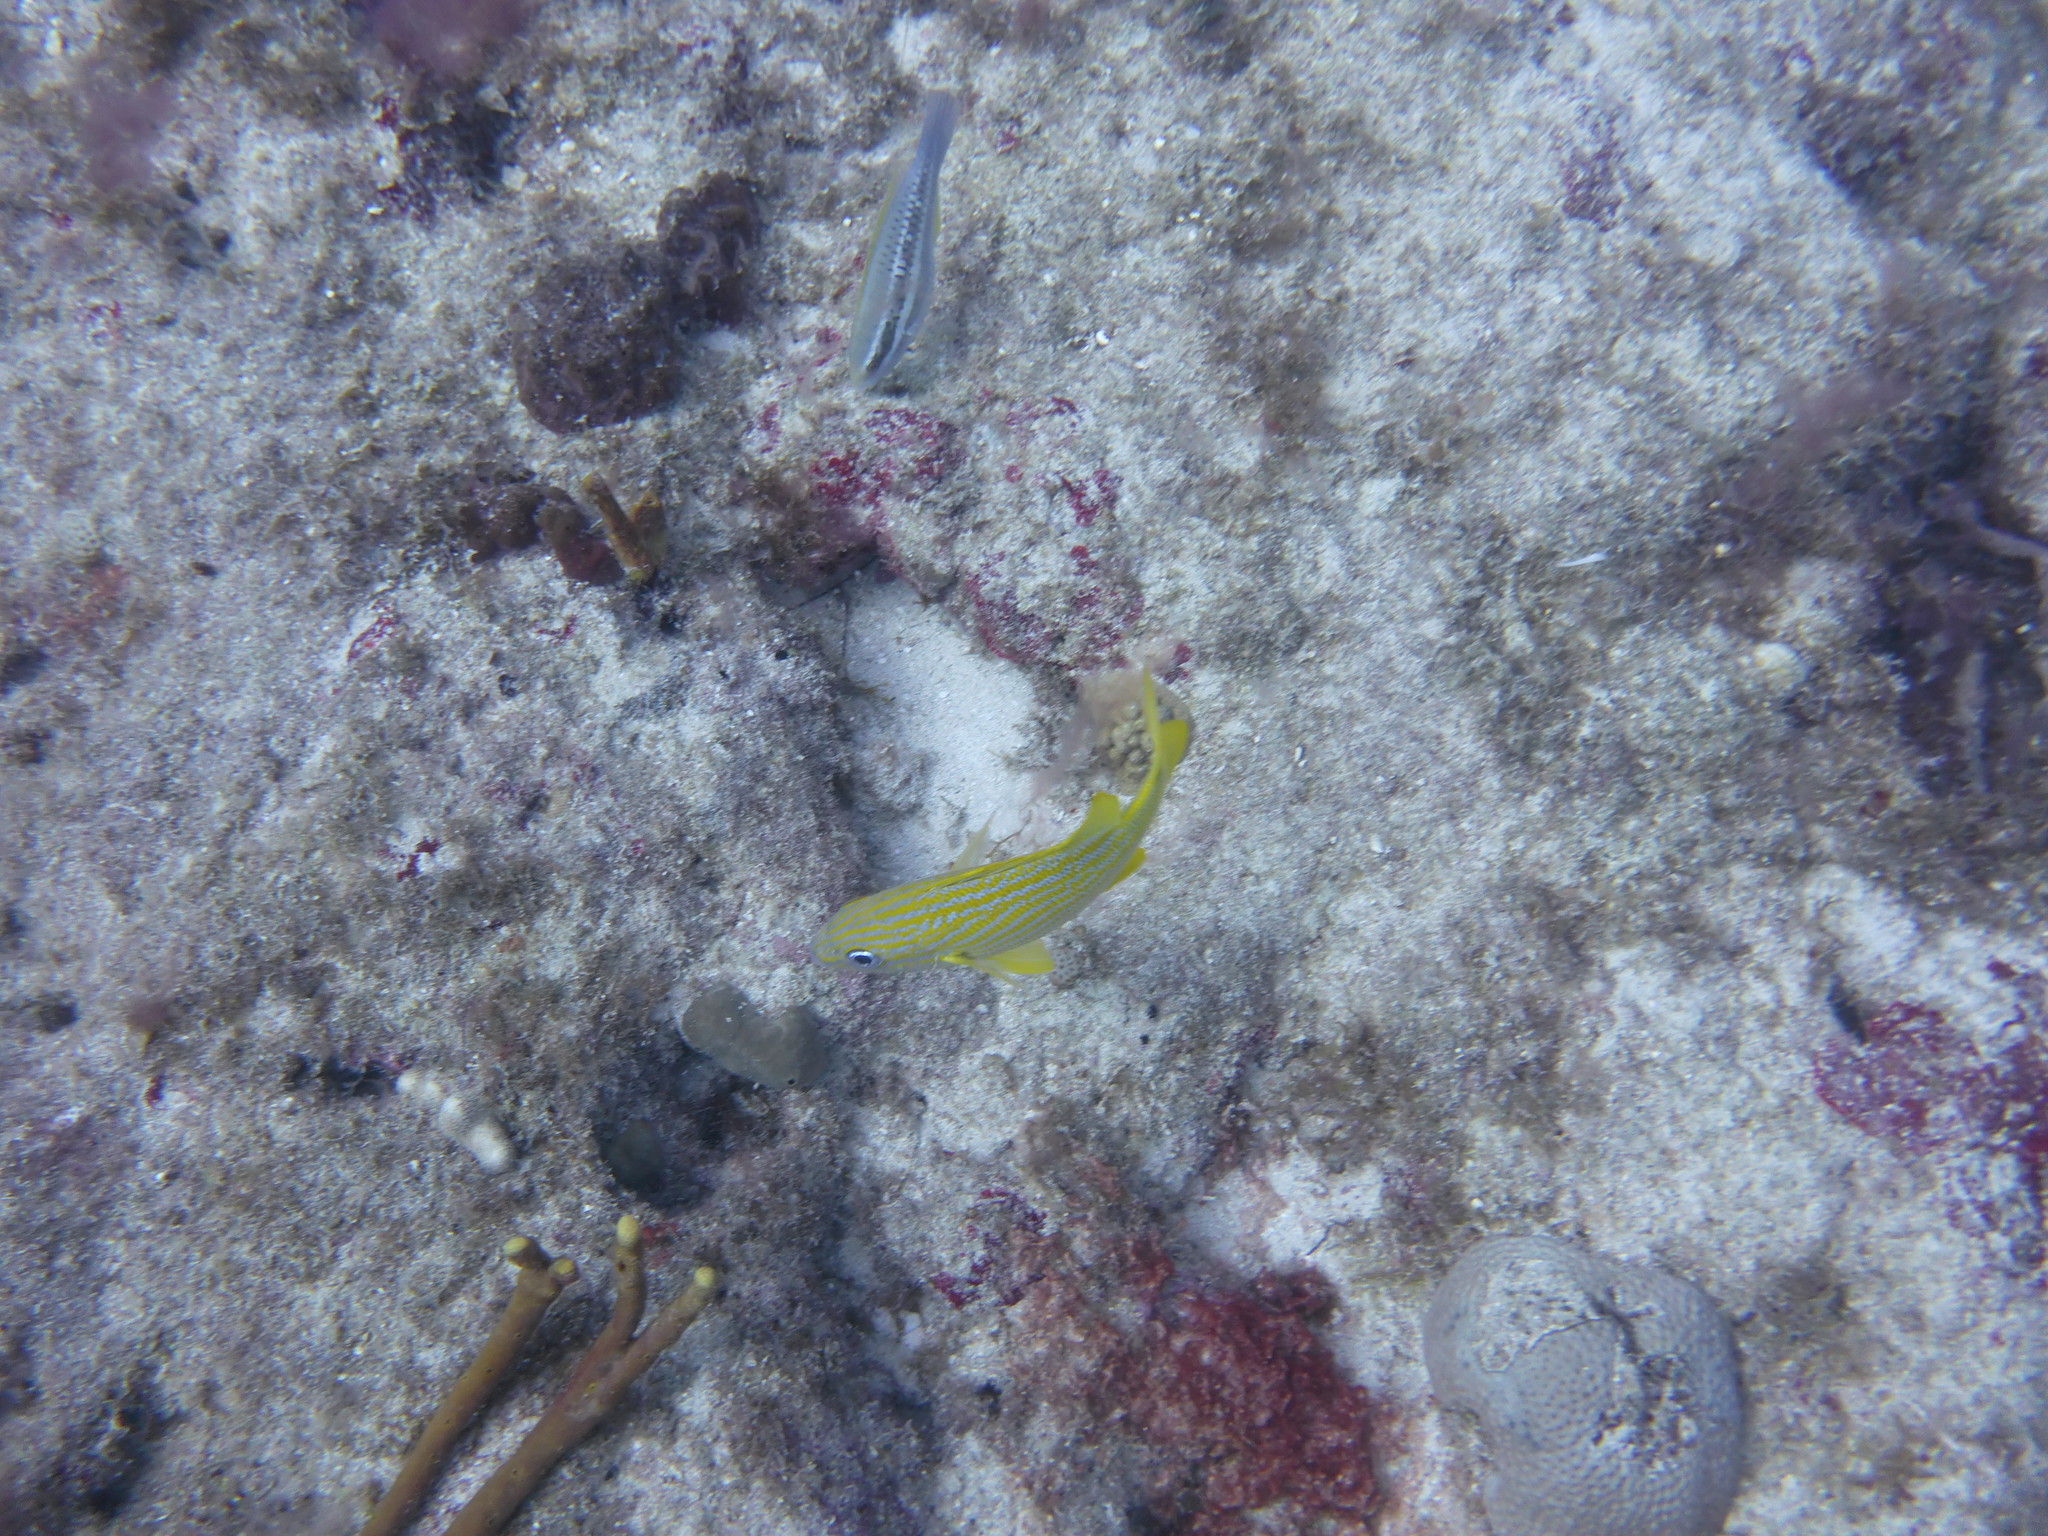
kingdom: Animalia
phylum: Chordata
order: Perciformes
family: Haemulidae
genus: Haemulon
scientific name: Haemulon flavolineatum
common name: French grunt
